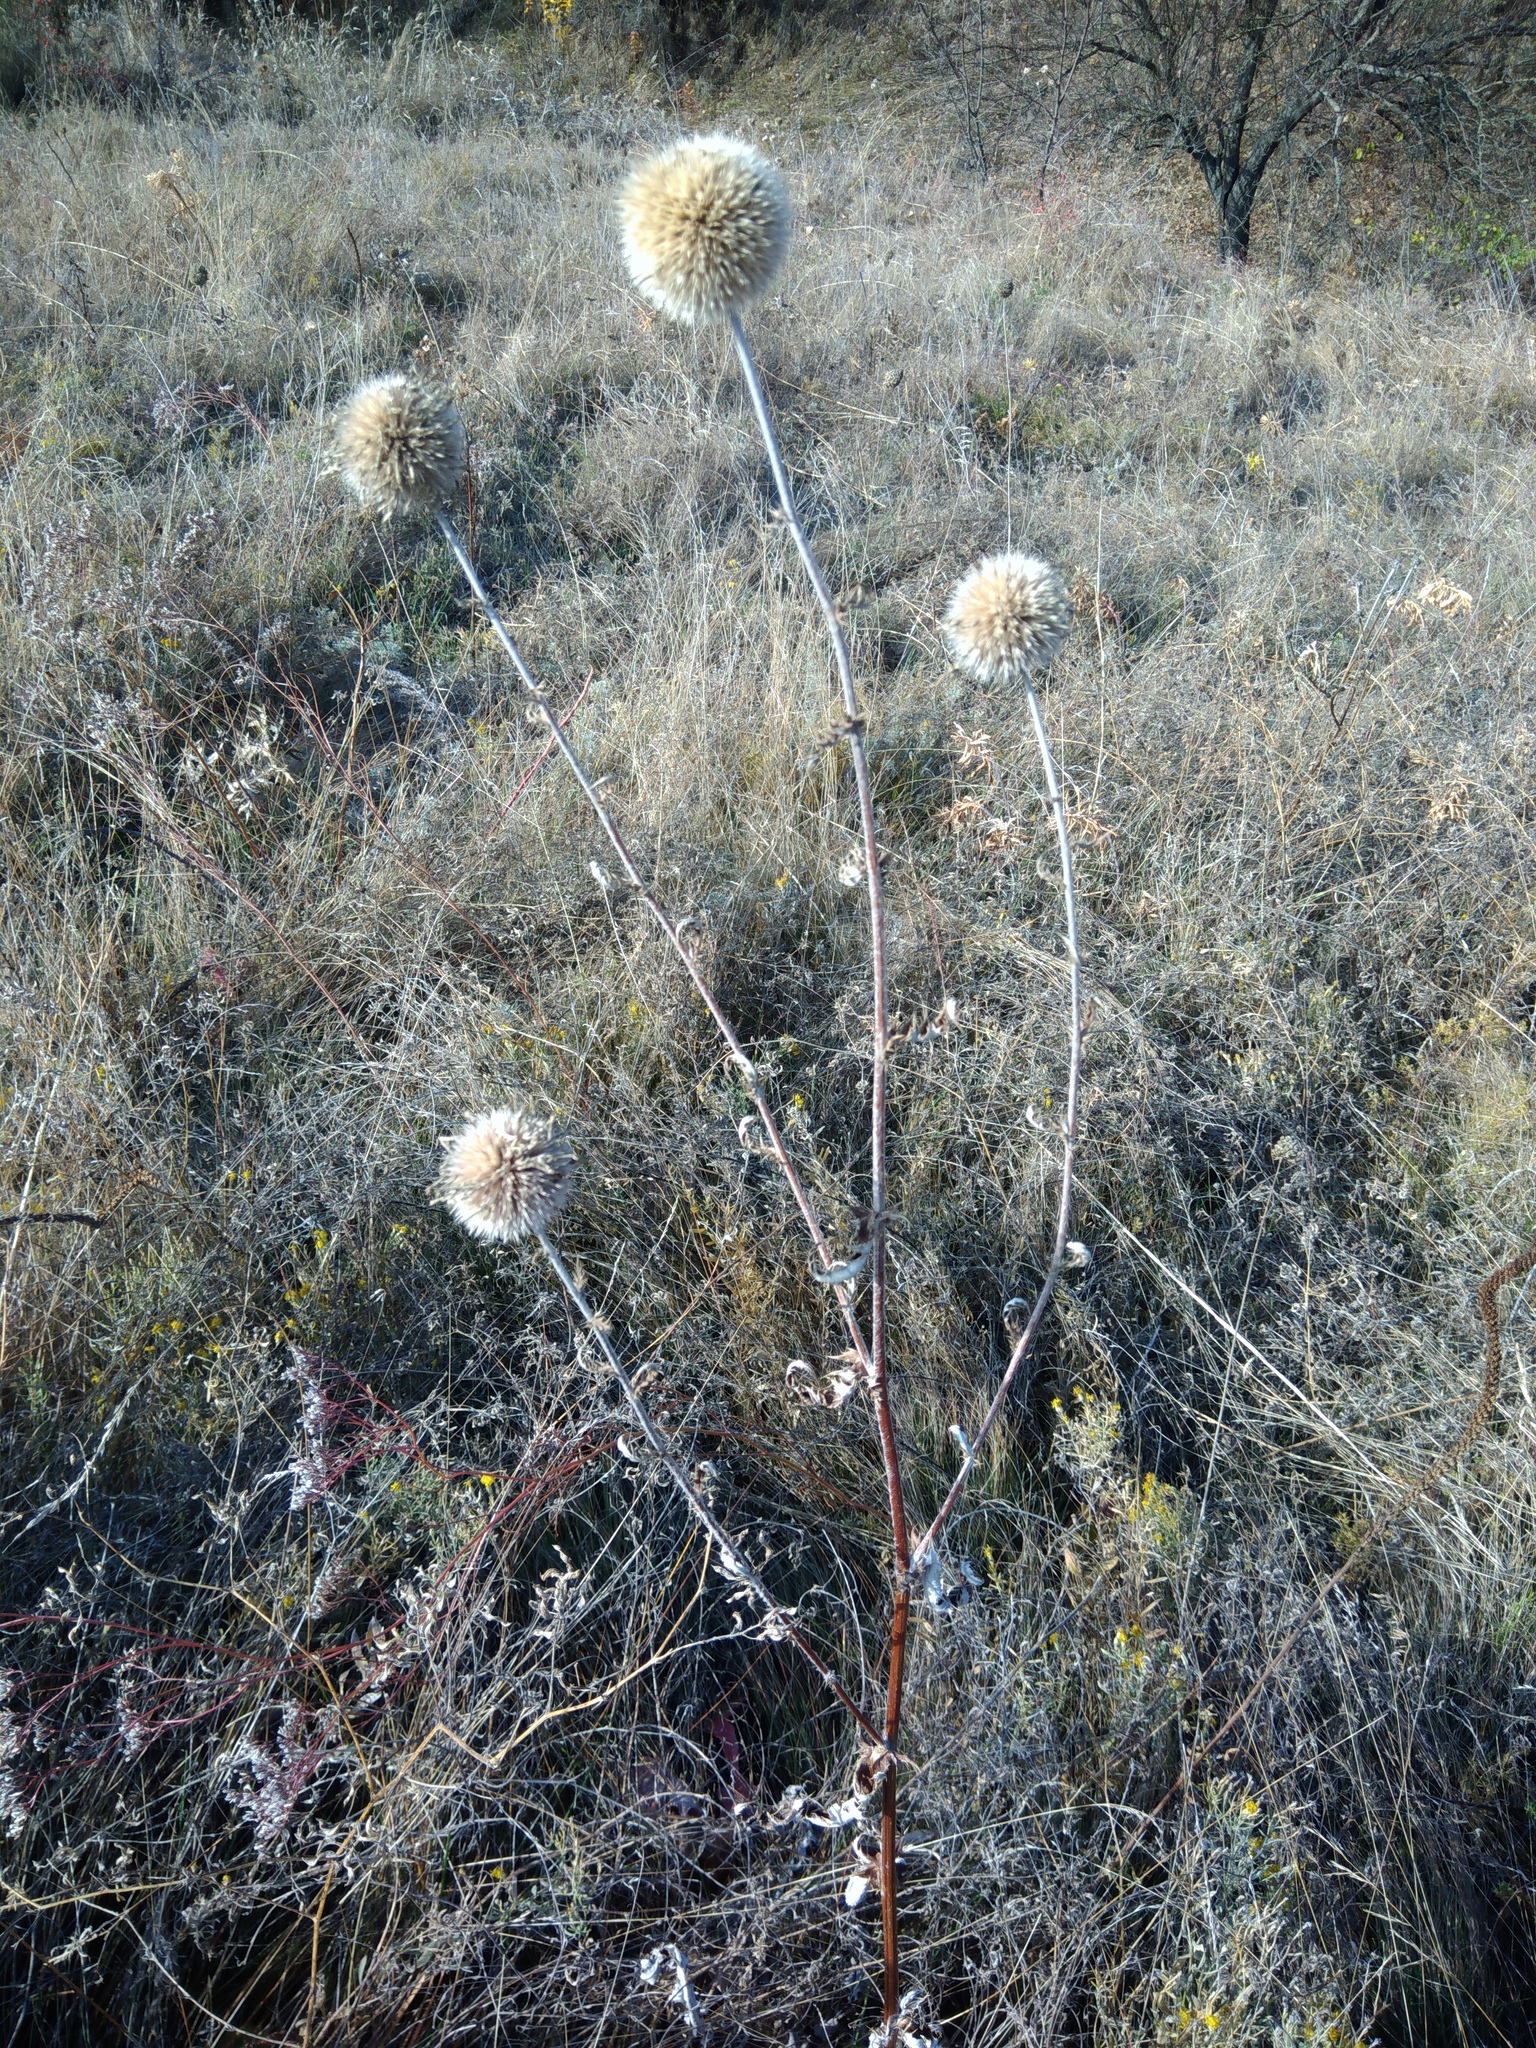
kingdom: Plantae
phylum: Tracheophyta
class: Magnoliopsida
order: Asterales
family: Asteraceae
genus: Echinops
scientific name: Echinops sphaerocephalus
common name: Glandular globe-thistle
